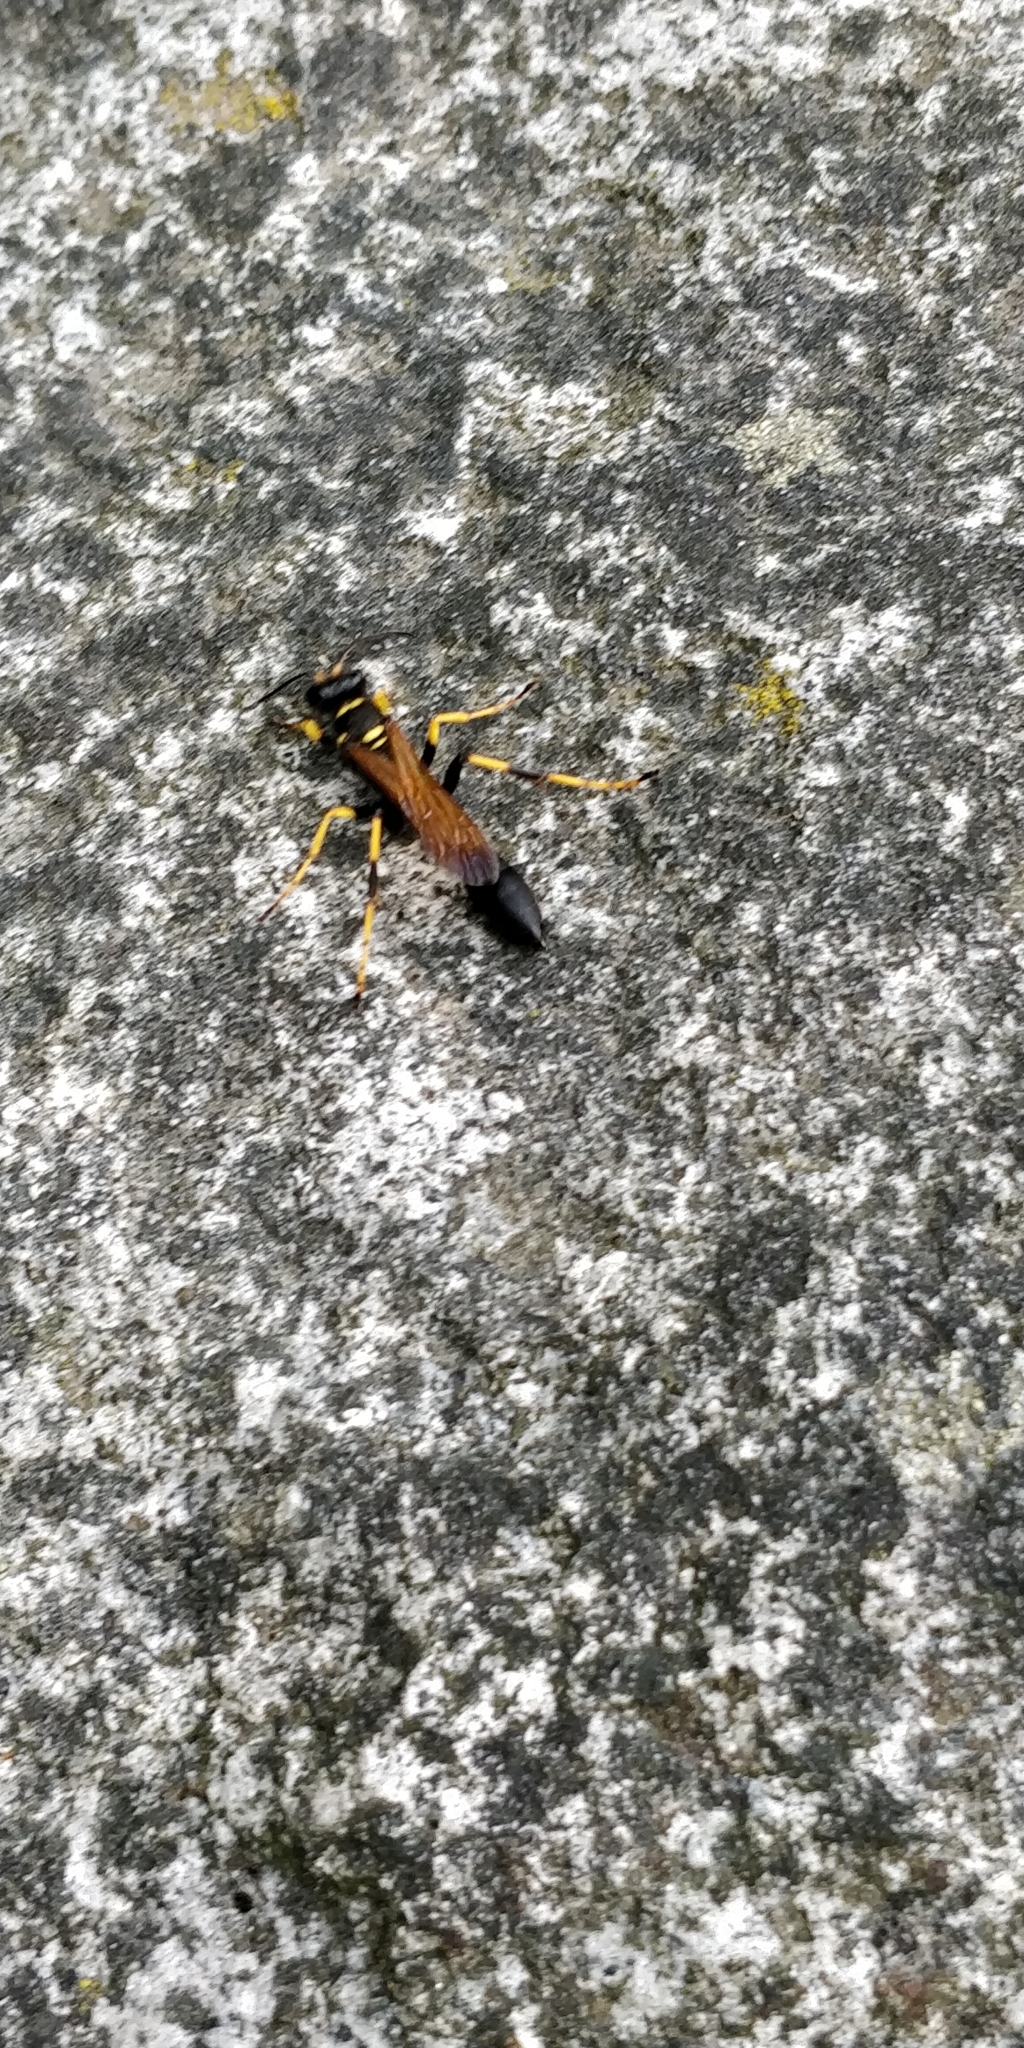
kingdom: Animalia
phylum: Arthropoda
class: Insecta
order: Hymenoptera
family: Sphecidae
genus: Sceliphron
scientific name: Sceliphron caementarium
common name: Mud dauber
